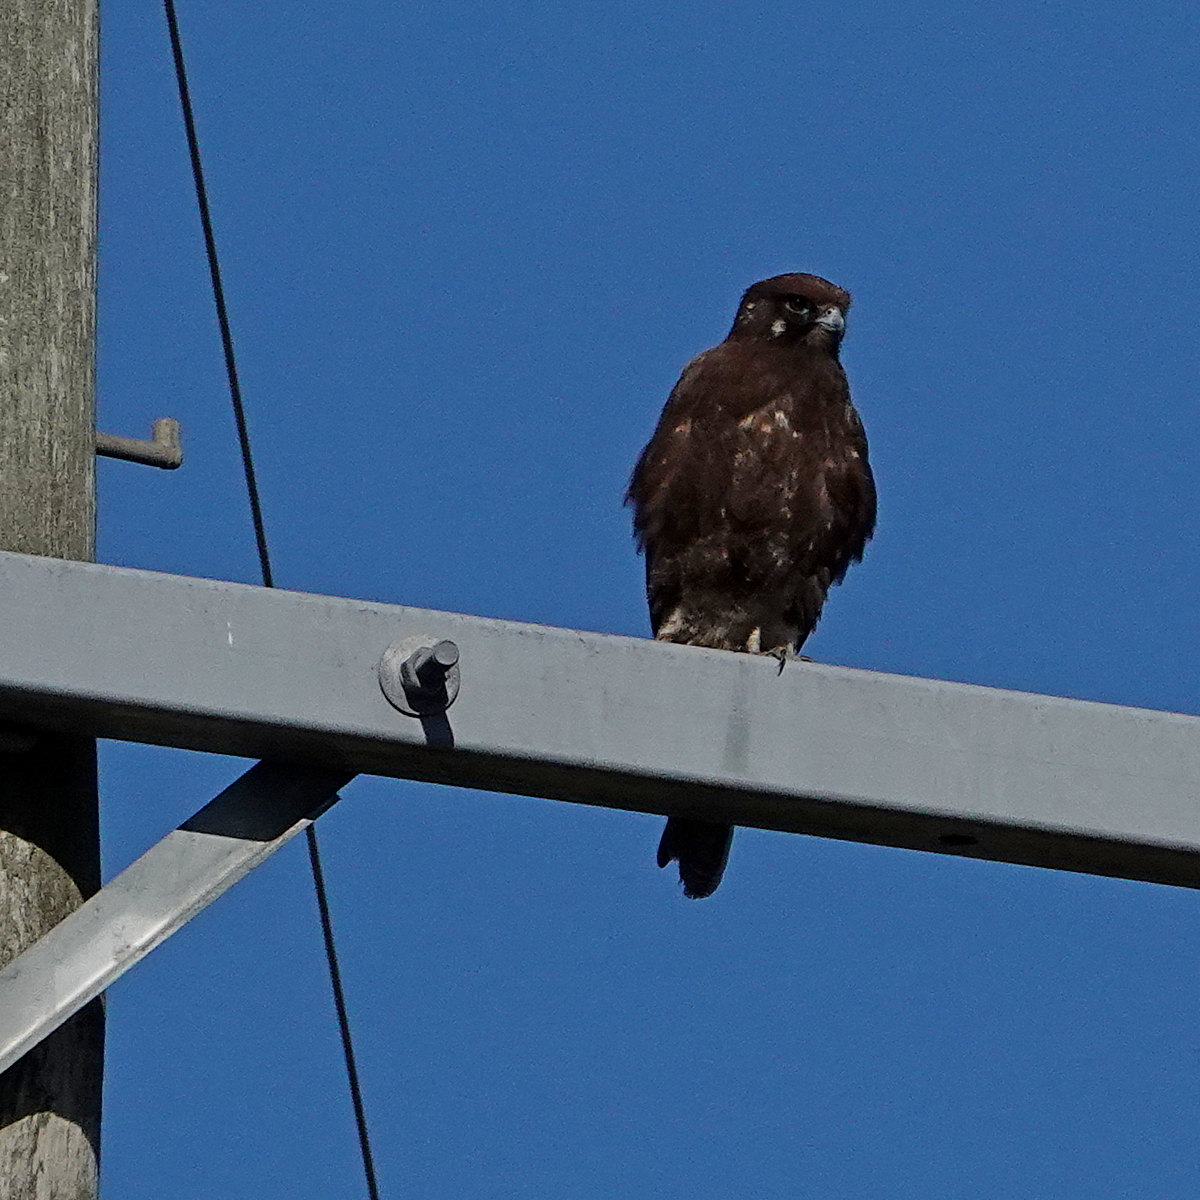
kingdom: Animalia
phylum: Chordata
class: Aves
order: Falconiformes
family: Falconidae
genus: Falco
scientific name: Falco berigora
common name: Brown falcon
